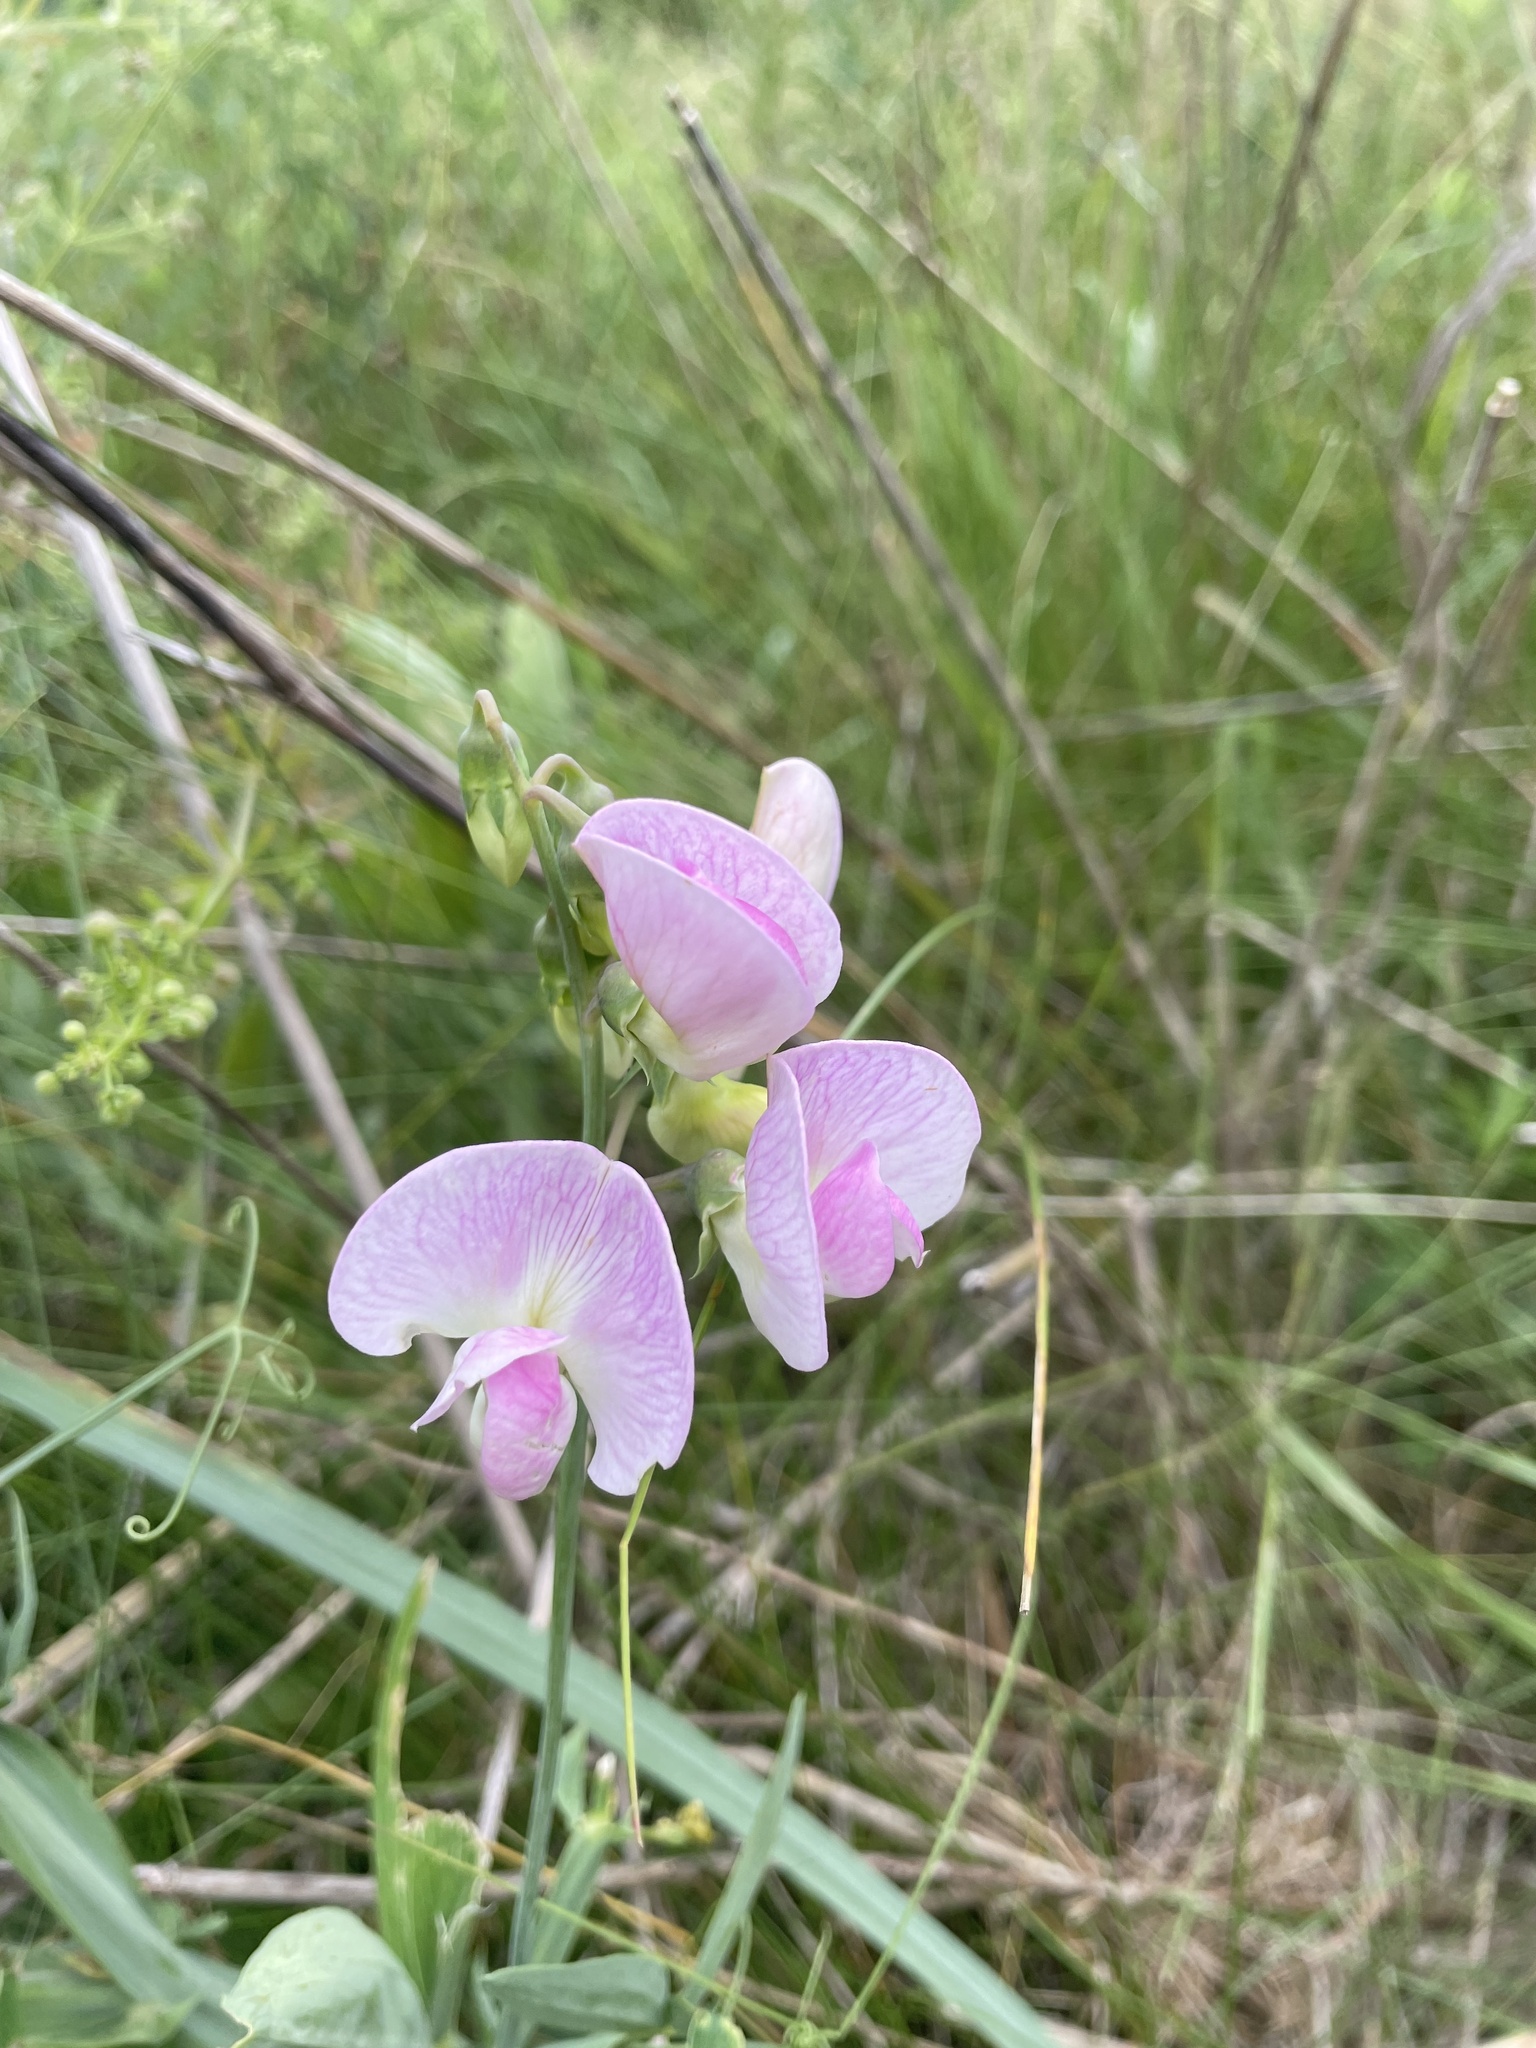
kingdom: Plantae
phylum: Tracheophyta
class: Magnoliopsida
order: Fabales
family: Fabaceae
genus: Lathyrus
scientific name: Lathyrus latifolius
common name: Perennial pea
